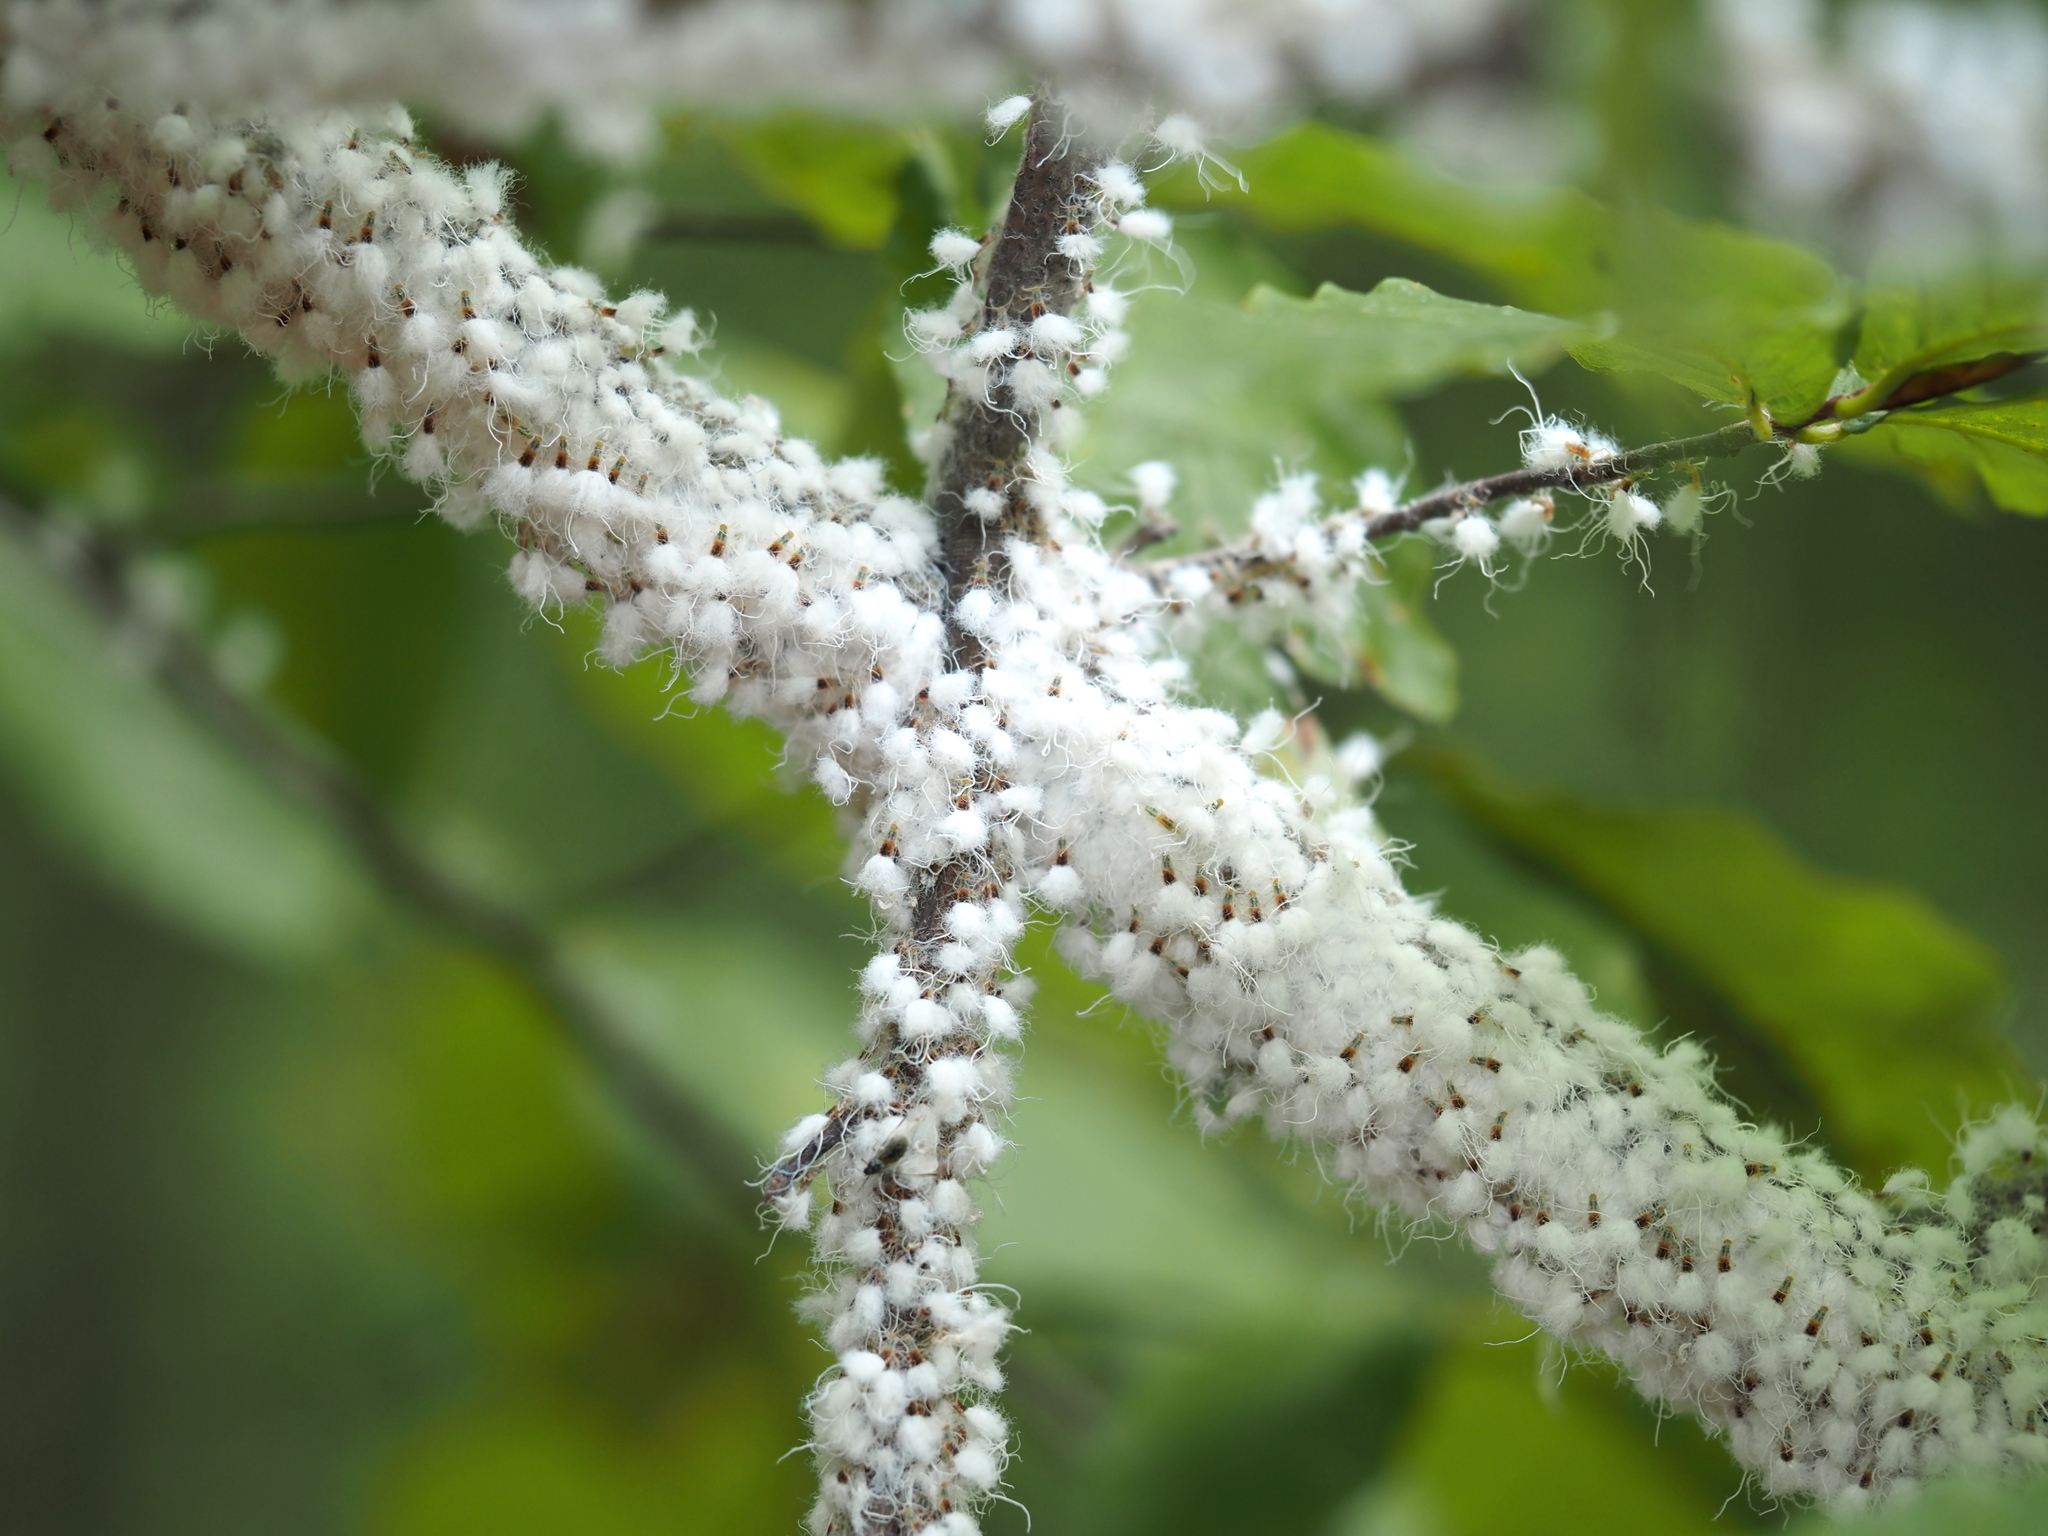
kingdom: Animalia
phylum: Arthropoda
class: Insecta
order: Hemiptera
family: Aphididae
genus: Grylloprociphilus
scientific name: Grylloprociphilus imbricator
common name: Beech blight aphid
